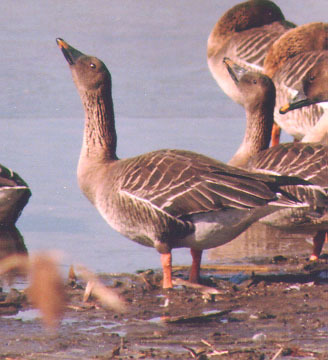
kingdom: Animalia
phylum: Chordata
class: Aves
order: Anseriformes
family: Anatidae
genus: Anser
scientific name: Anser fabalis
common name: Bean goose
